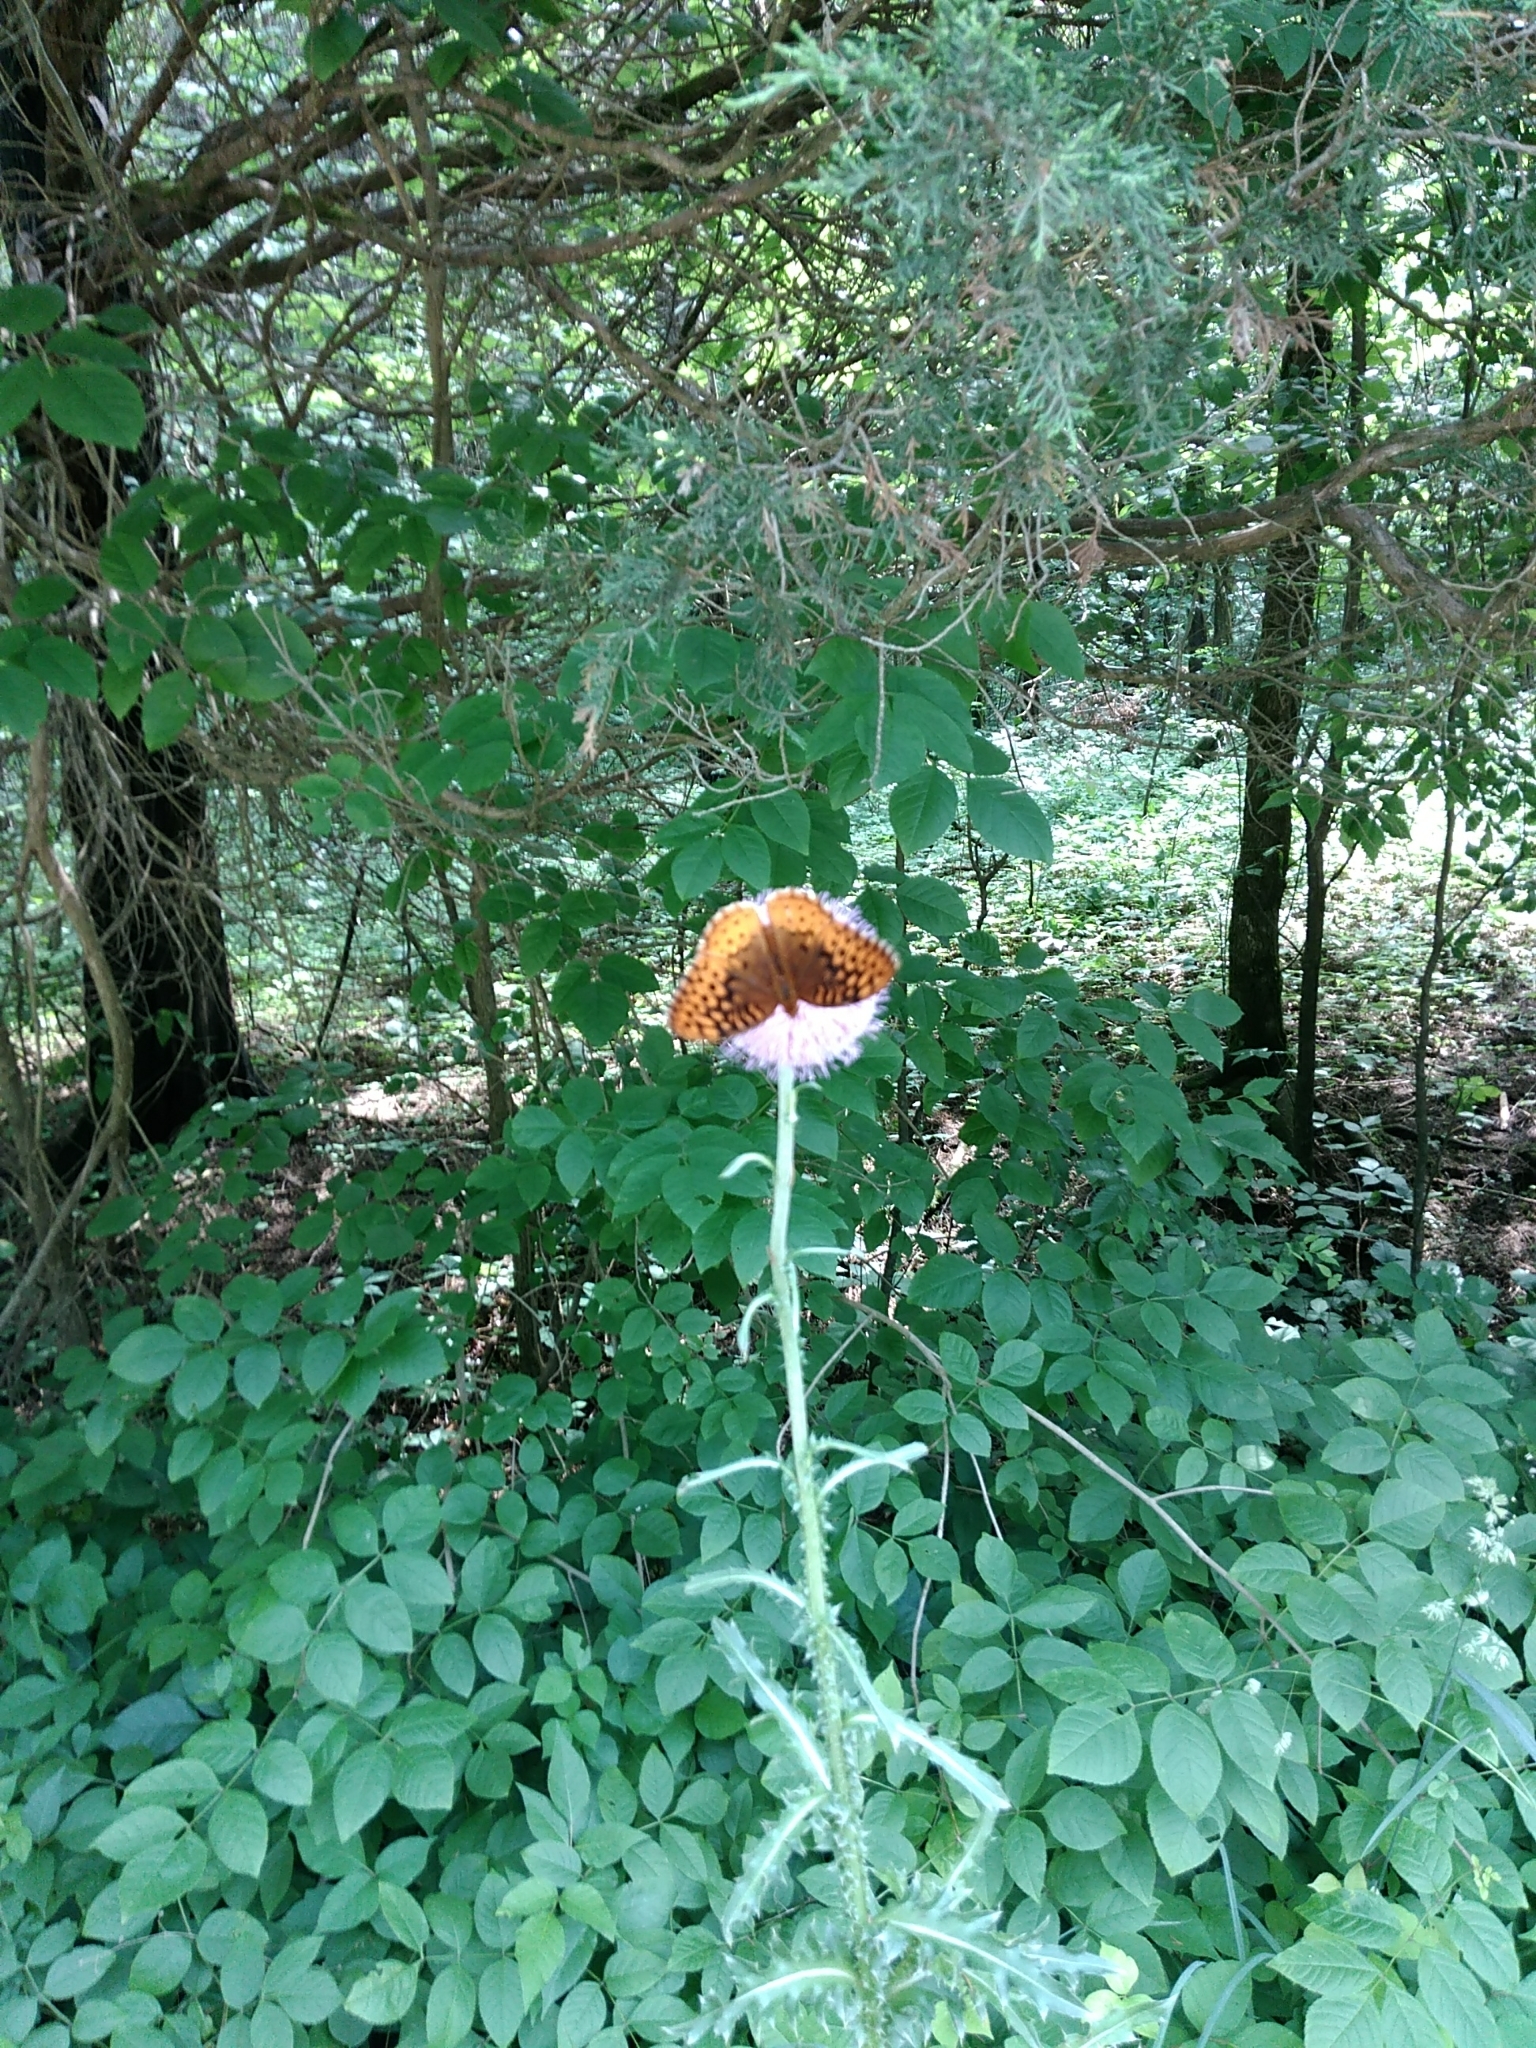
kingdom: Animalia
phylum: Arthropoda
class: Insecta
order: Lepidoptera
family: Nymphalidae
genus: Speyeria
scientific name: Speyeria cybele
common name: Great spangled fritillary
